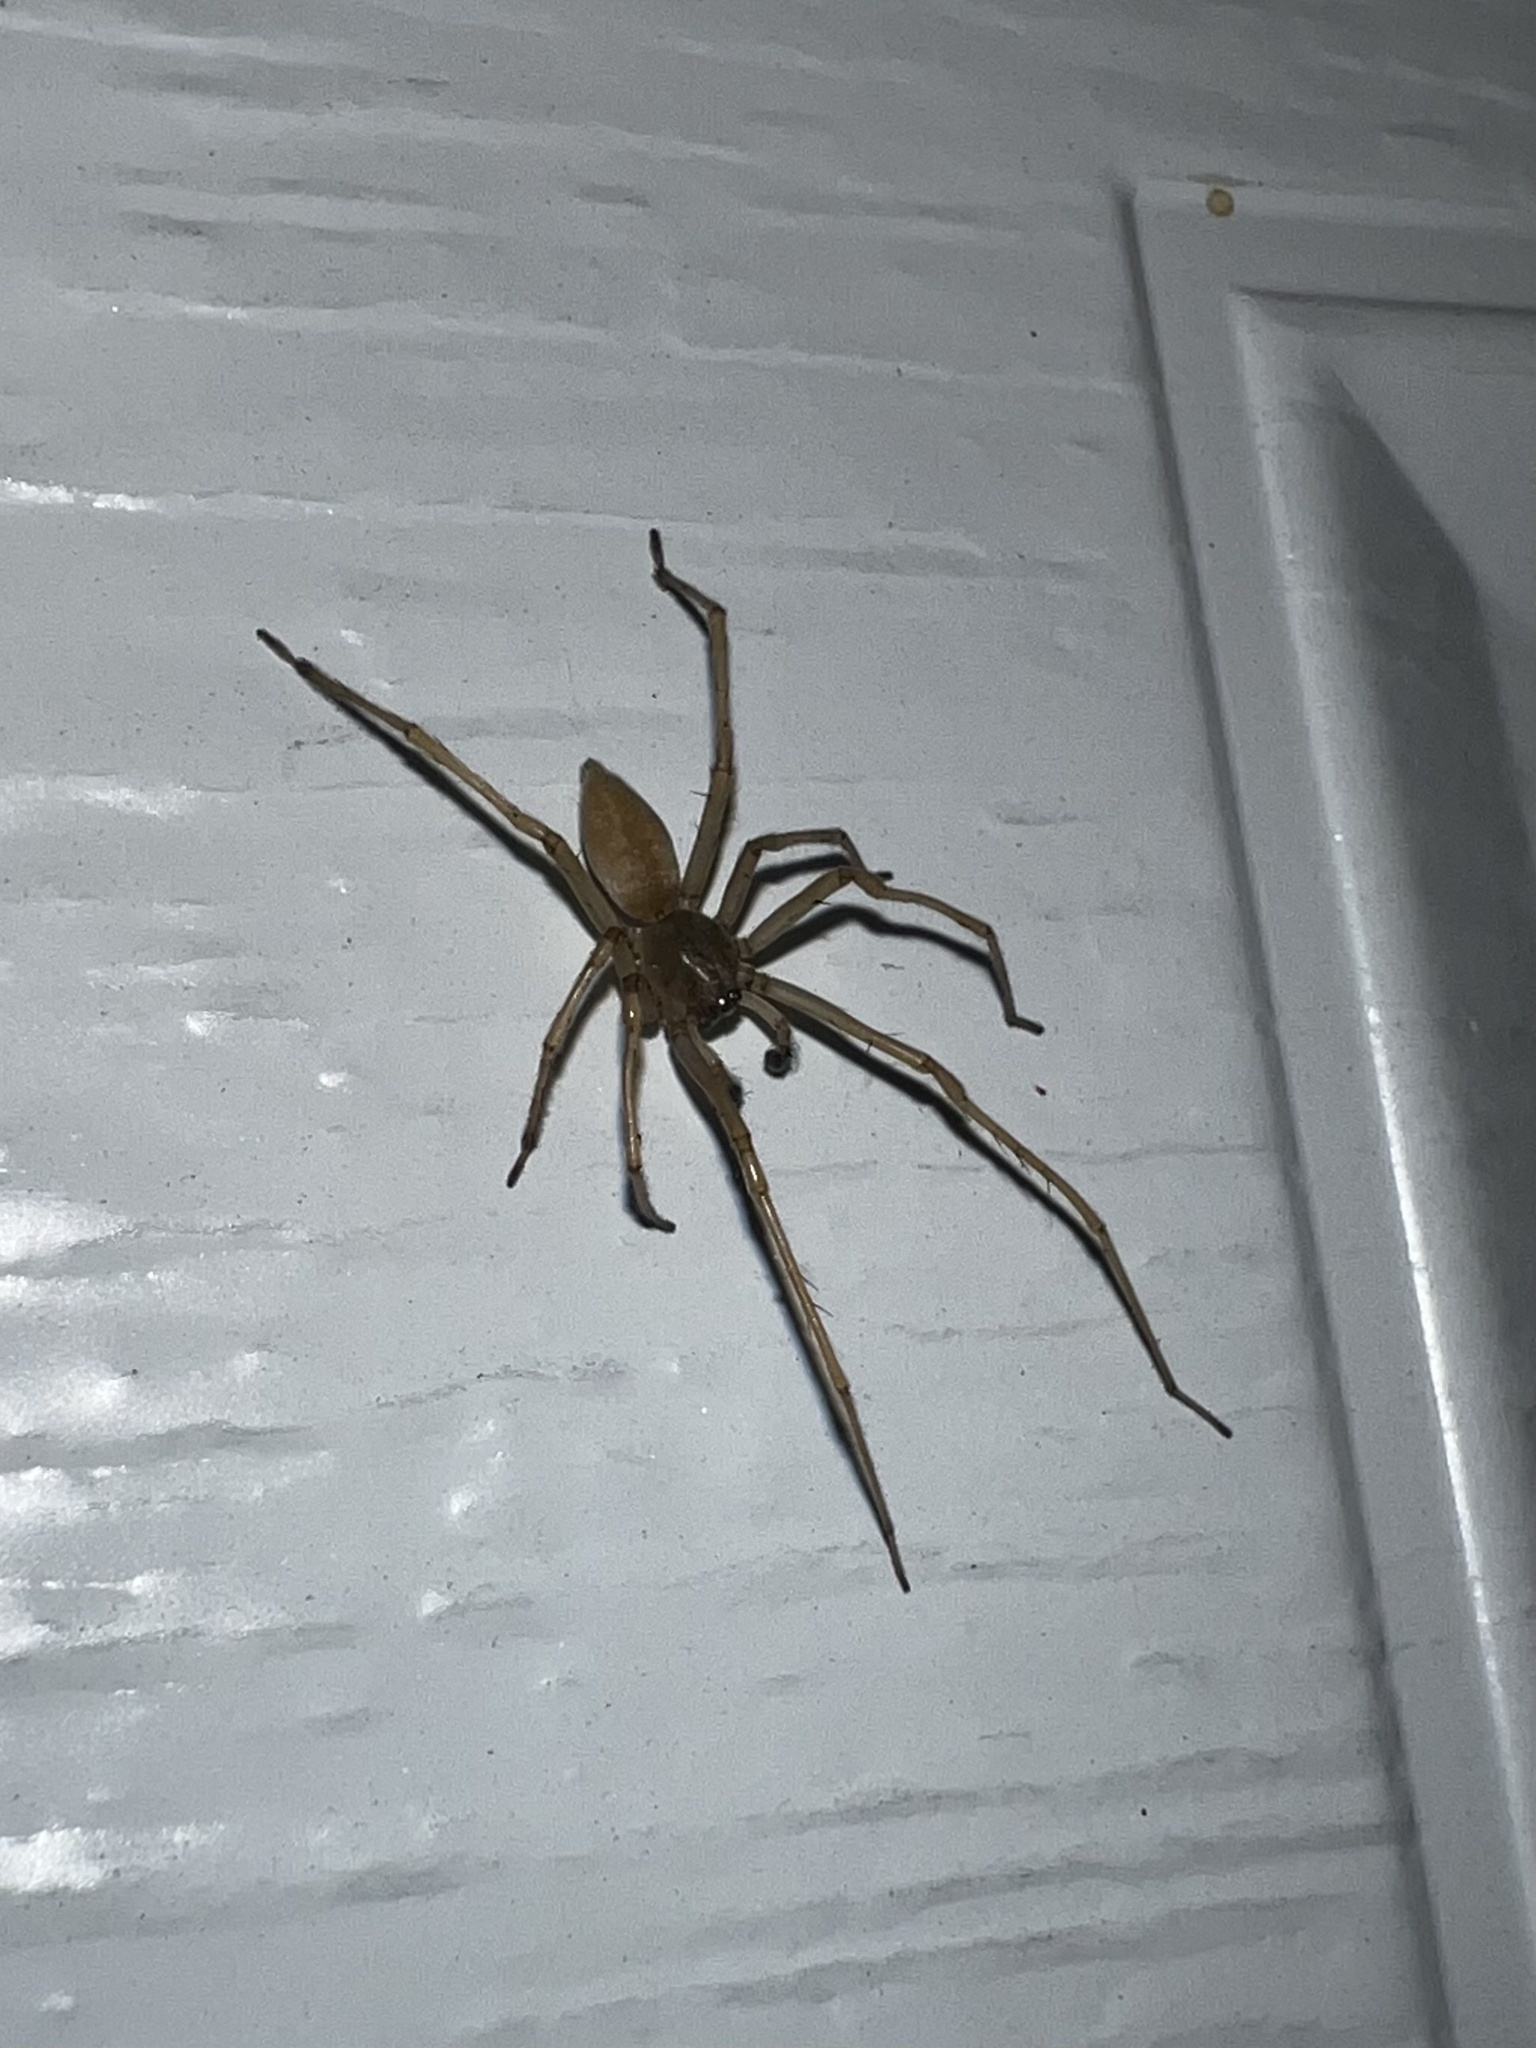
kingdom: Animalia
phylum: Arthropoda
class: Arachnida
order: Araneae
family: Cheiracanthiidae
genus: Cheiracanthium
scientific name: Cheiracanthium mildei
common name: Northern yellow sac spider
